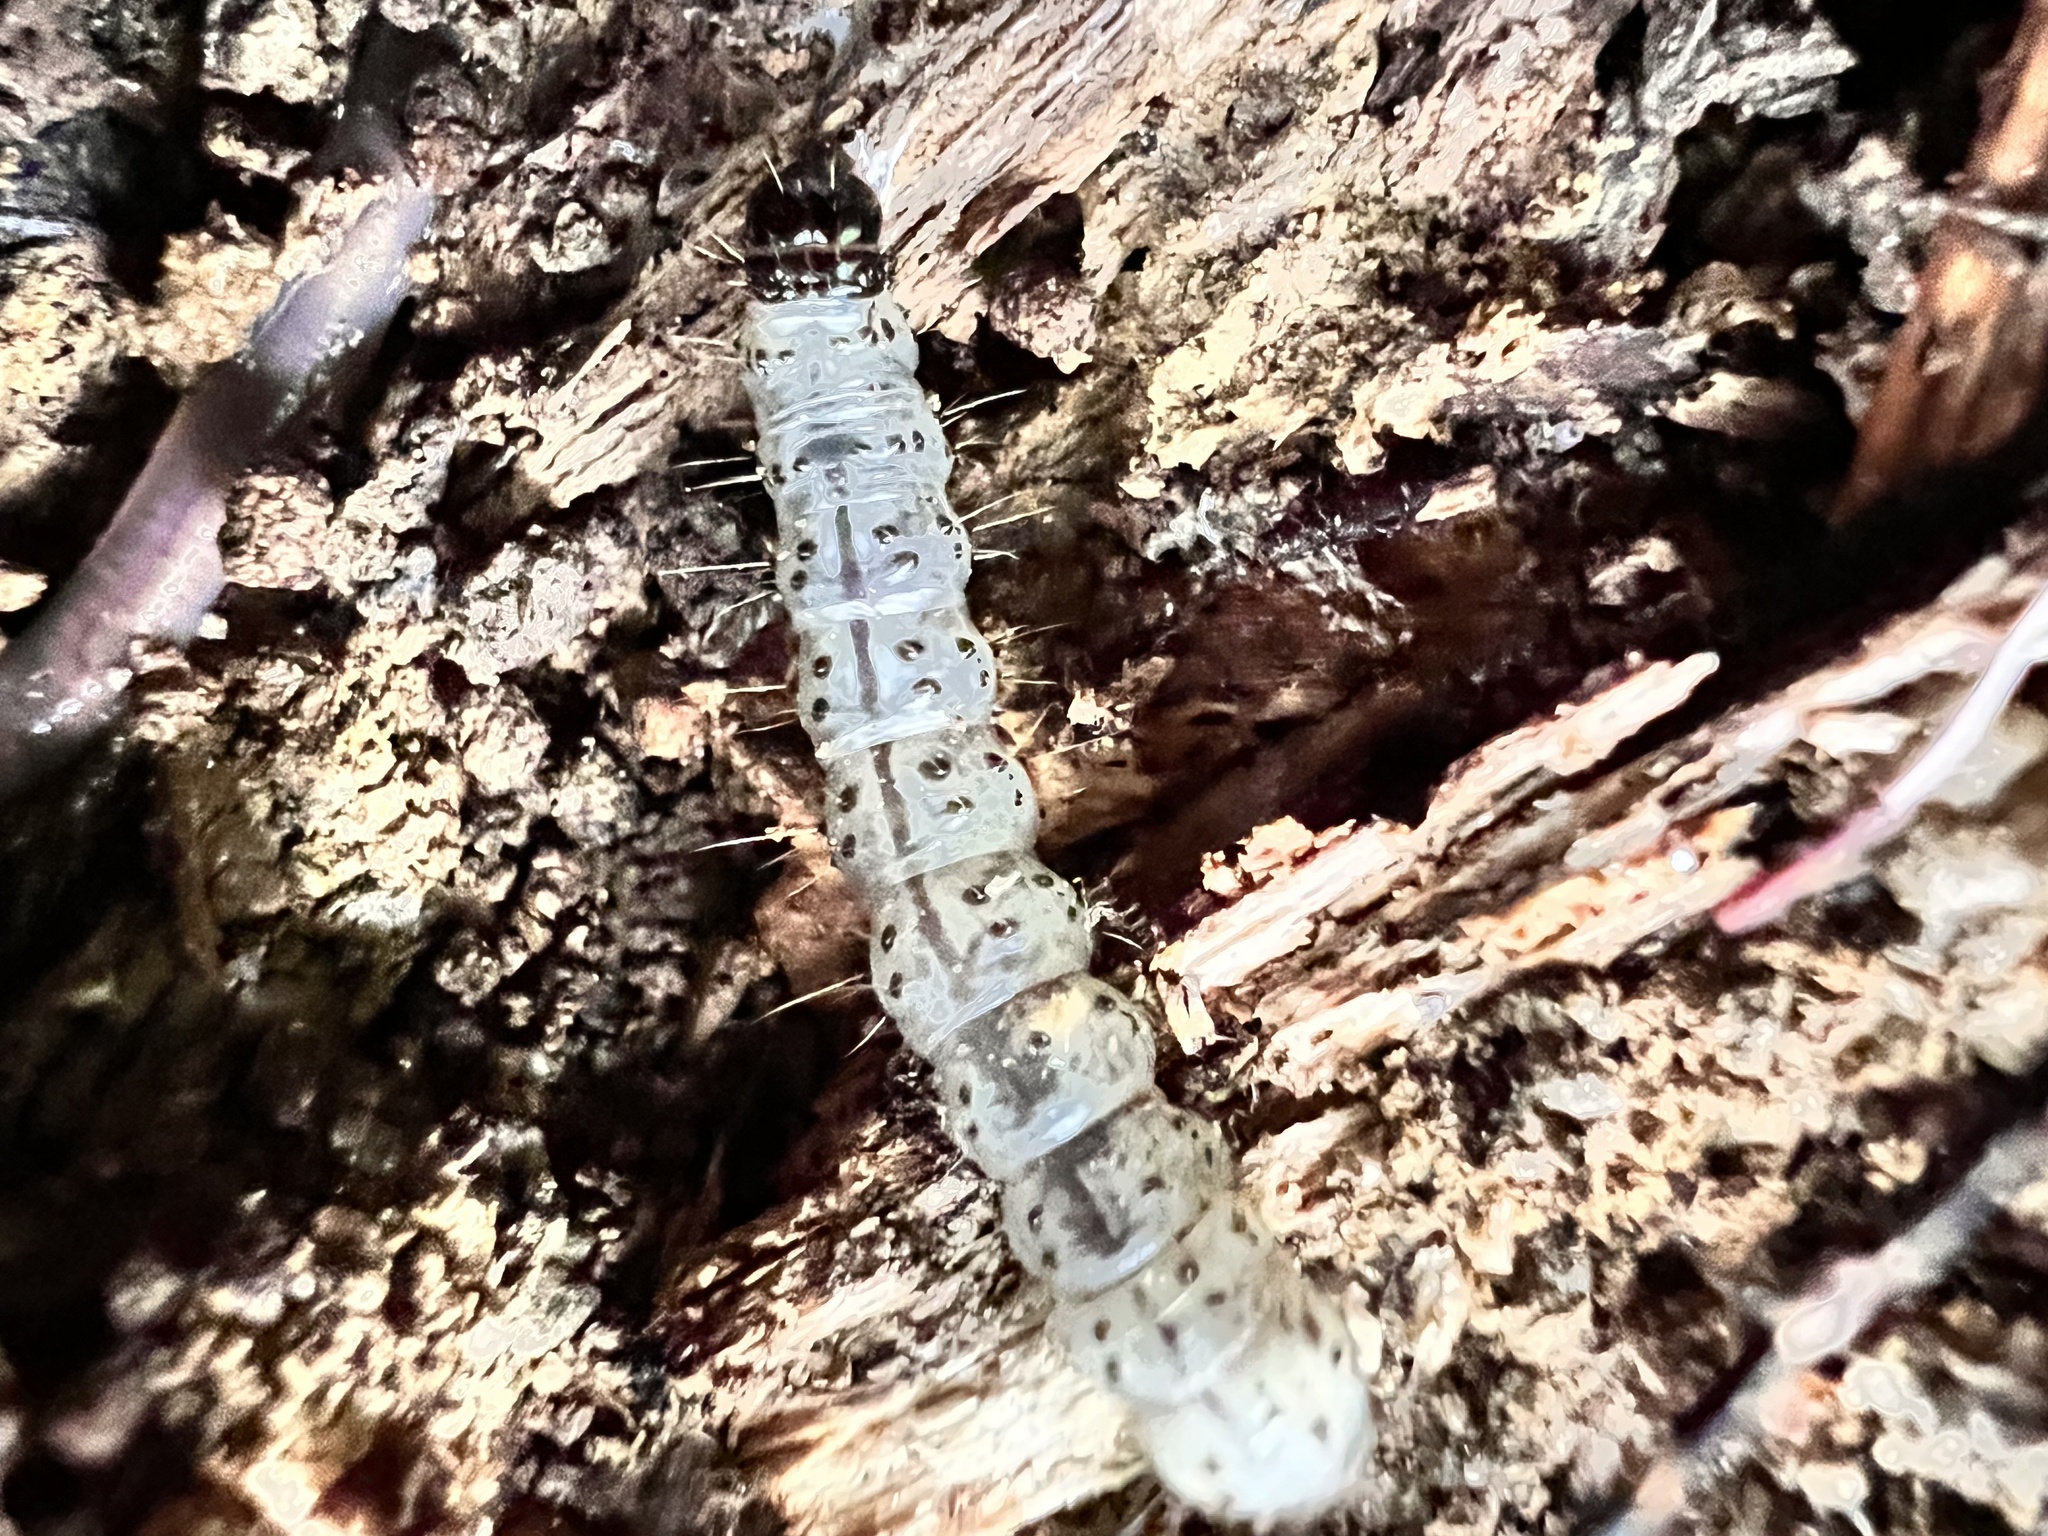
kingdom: Animalia
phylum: Arthropoda
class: Insecta
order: Lepidoptera
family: Erebidae
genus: Scolecocampa
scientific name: Scolecocampa liburna
